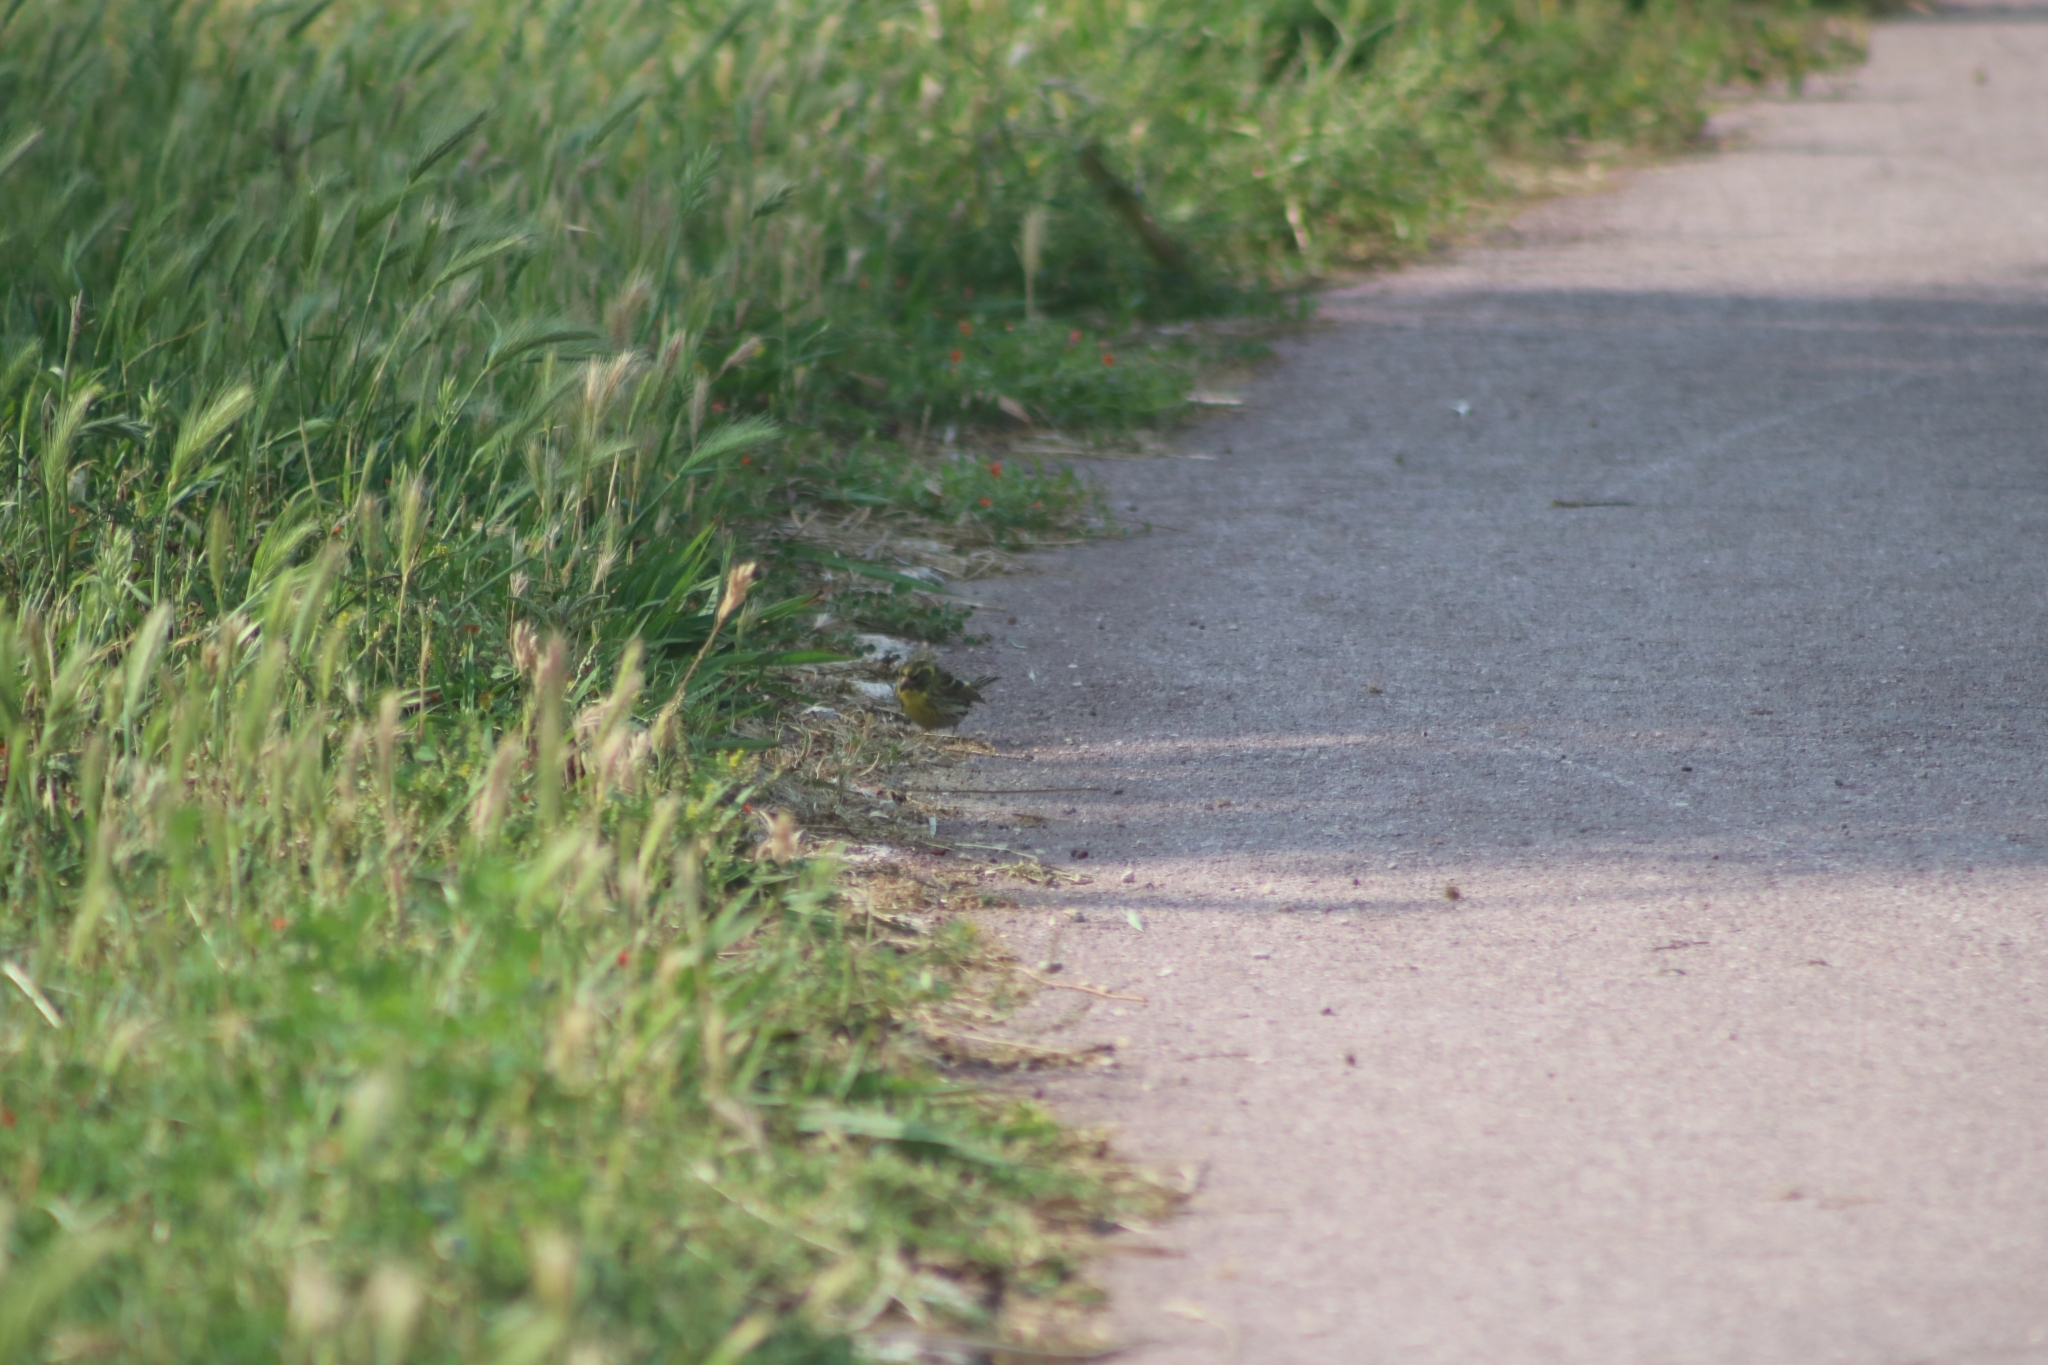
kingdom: Animalia
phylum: Chordata
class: Aves
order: Passeriformes
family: Fringillidae
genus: Serinus
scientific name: Serinus serinus
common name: European serin
